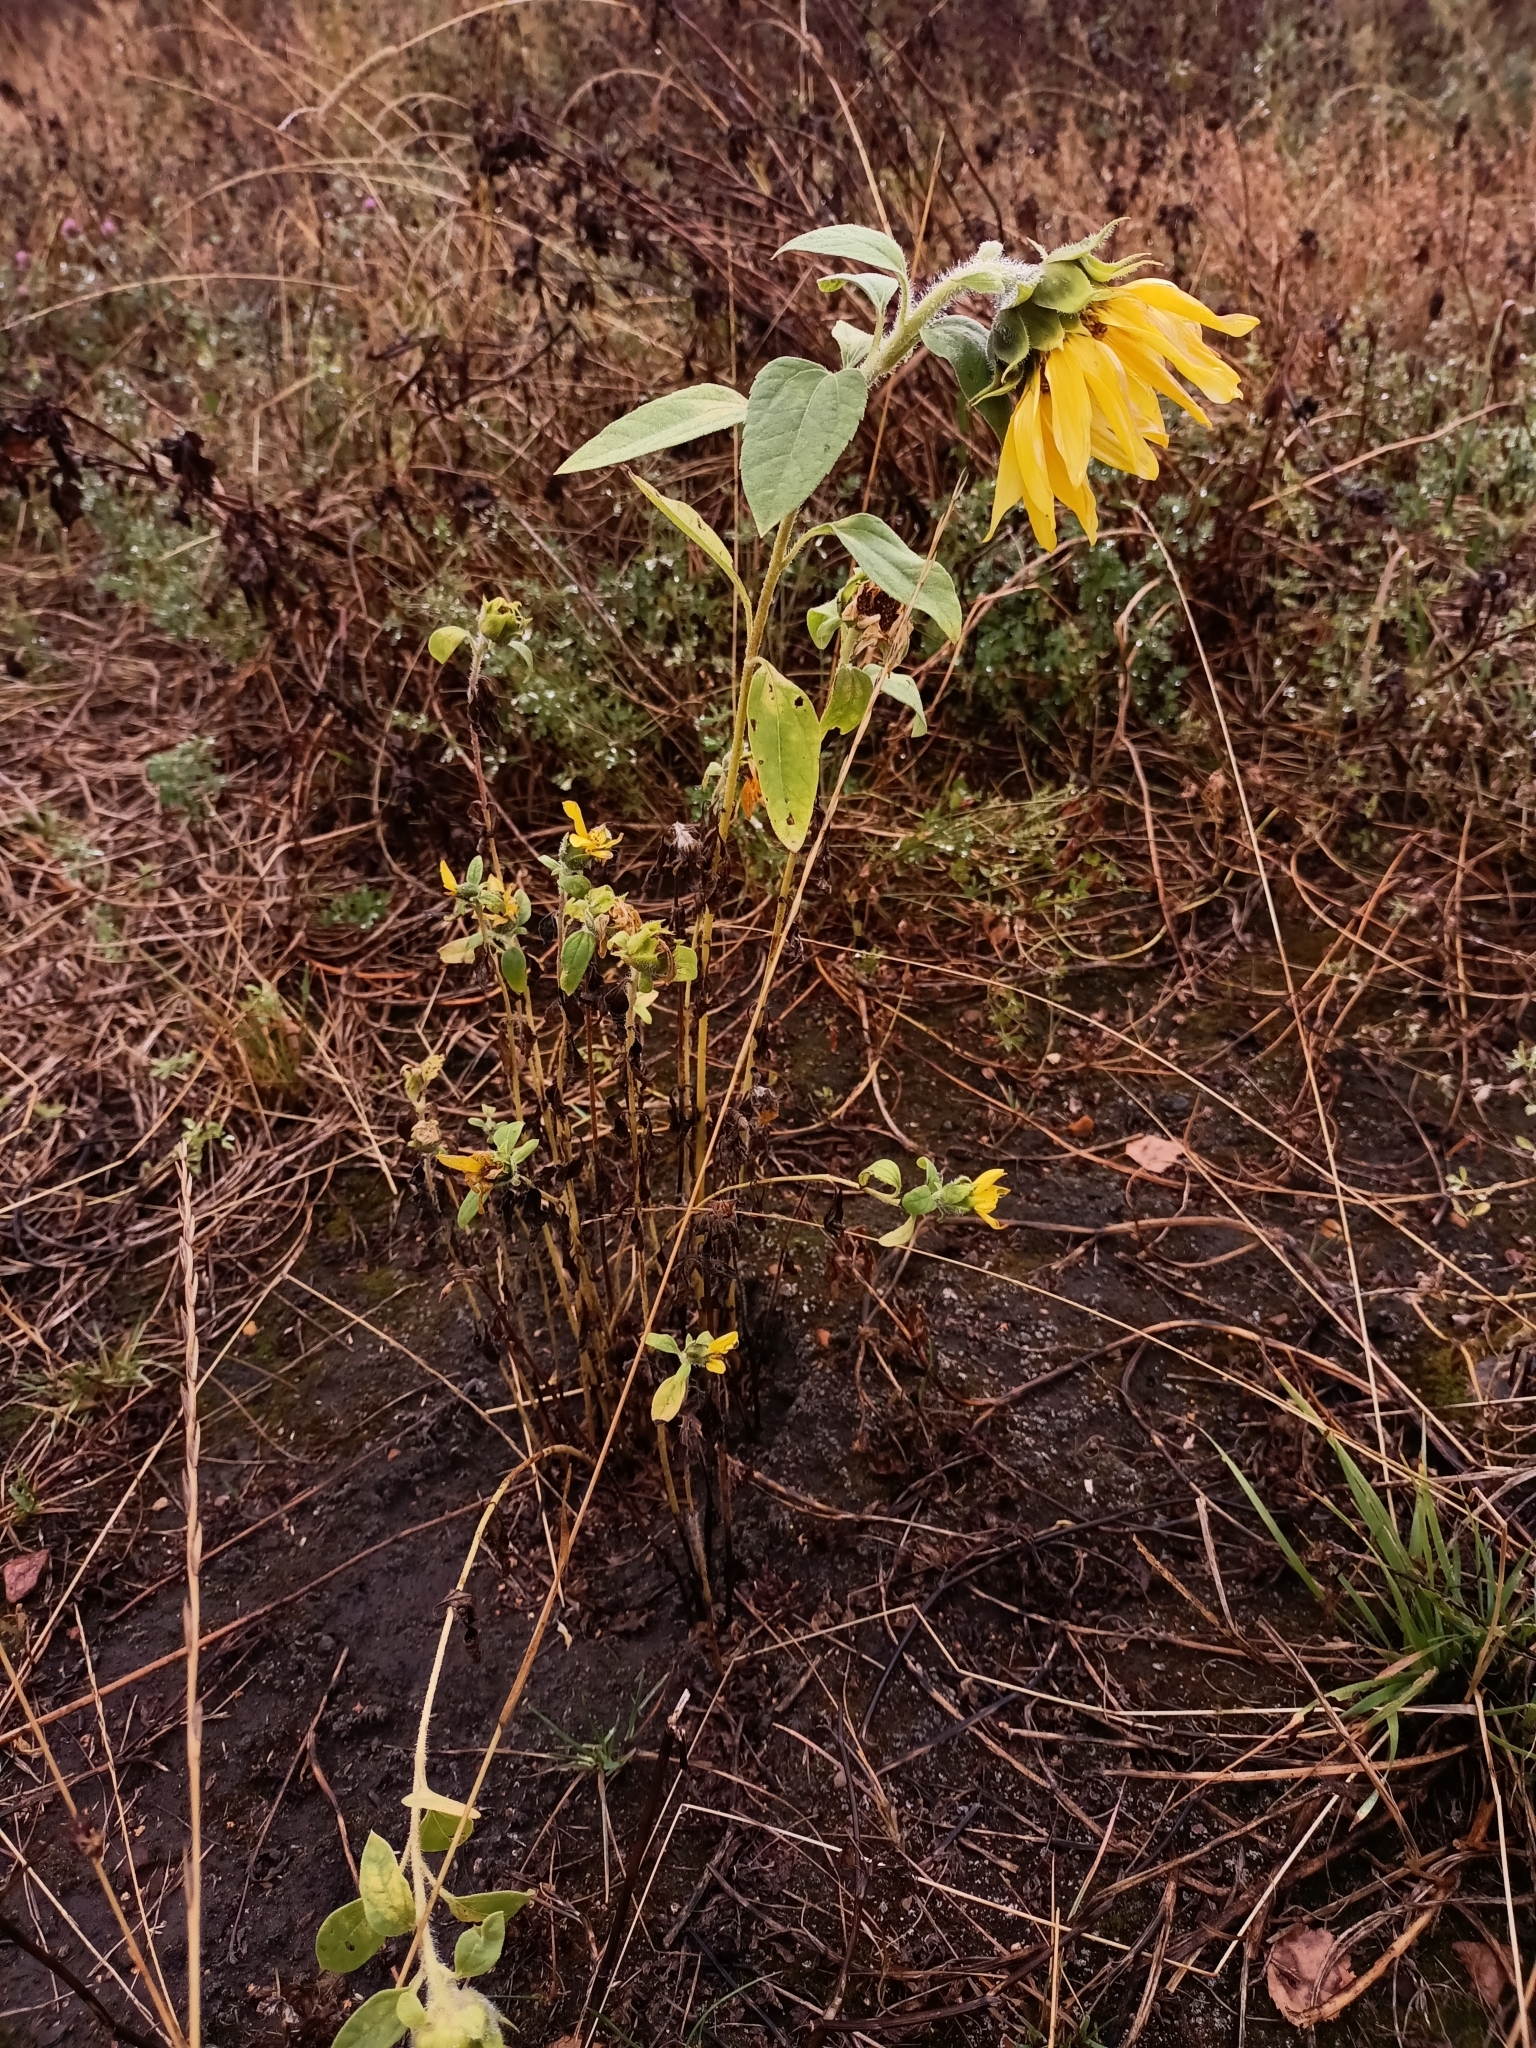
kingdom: Plantae
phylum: Tracheophyta
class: Magnoliopsida
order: Asterales
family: Asteraceae
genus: Helianthus
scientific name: Helianthus annuus
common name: Sunflower
